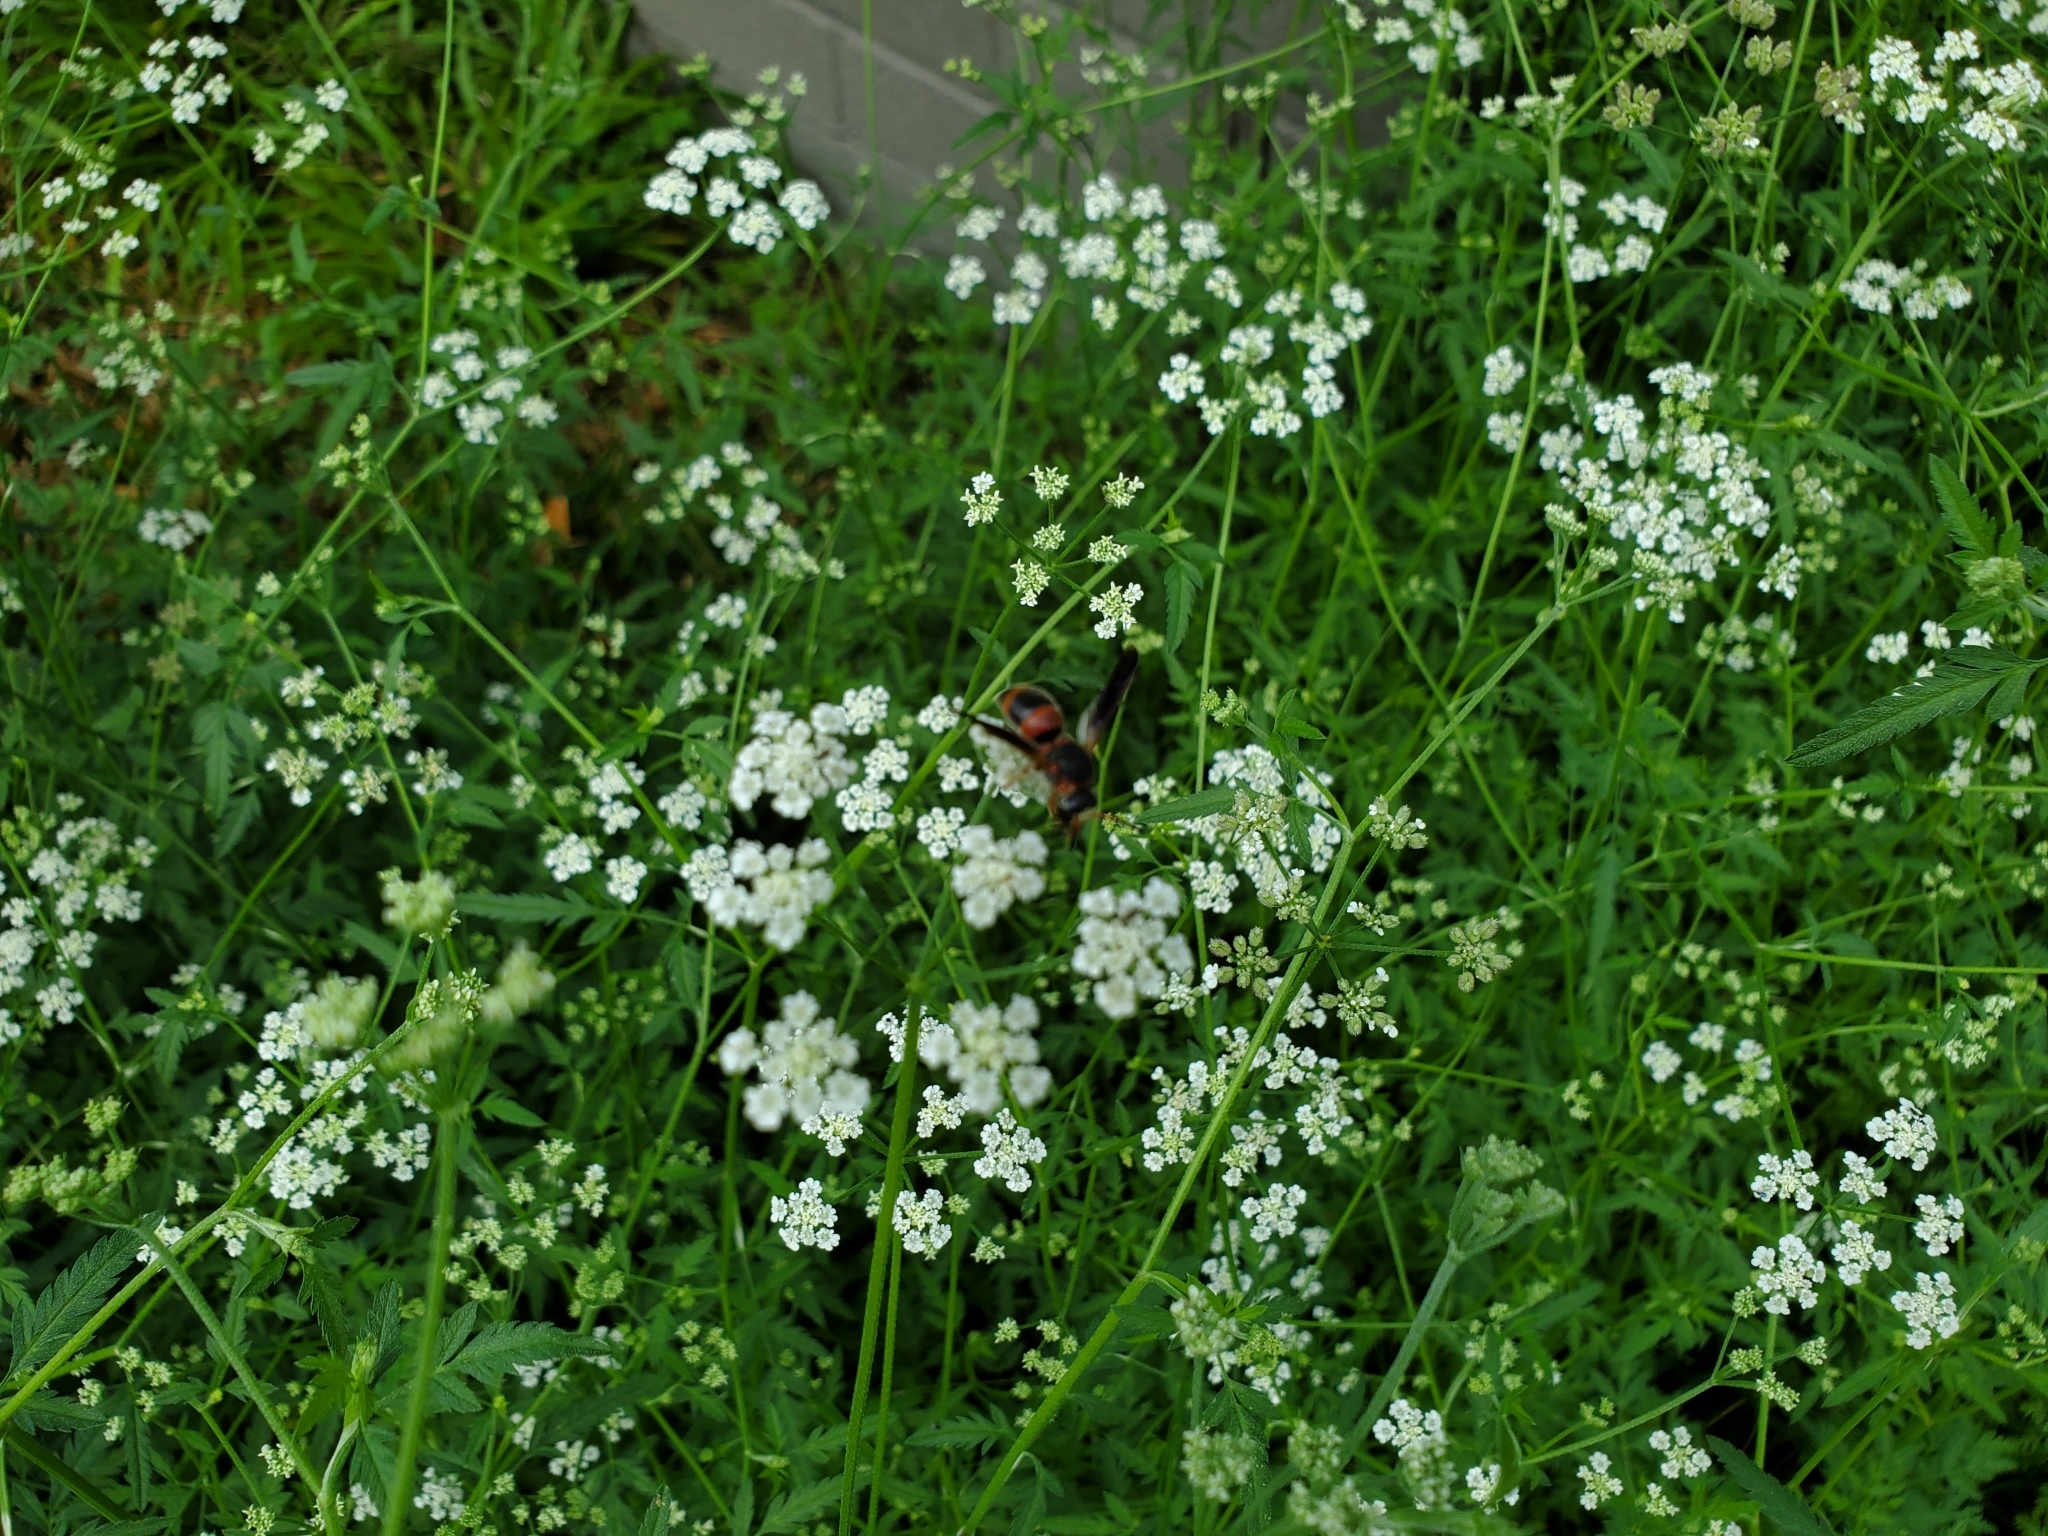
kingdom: Animalia
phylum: Arthropoda
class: Insecta
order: Hymenoptera
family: Eumenidae
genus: Pachodynerus
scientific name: Pachodynerus erynnis
